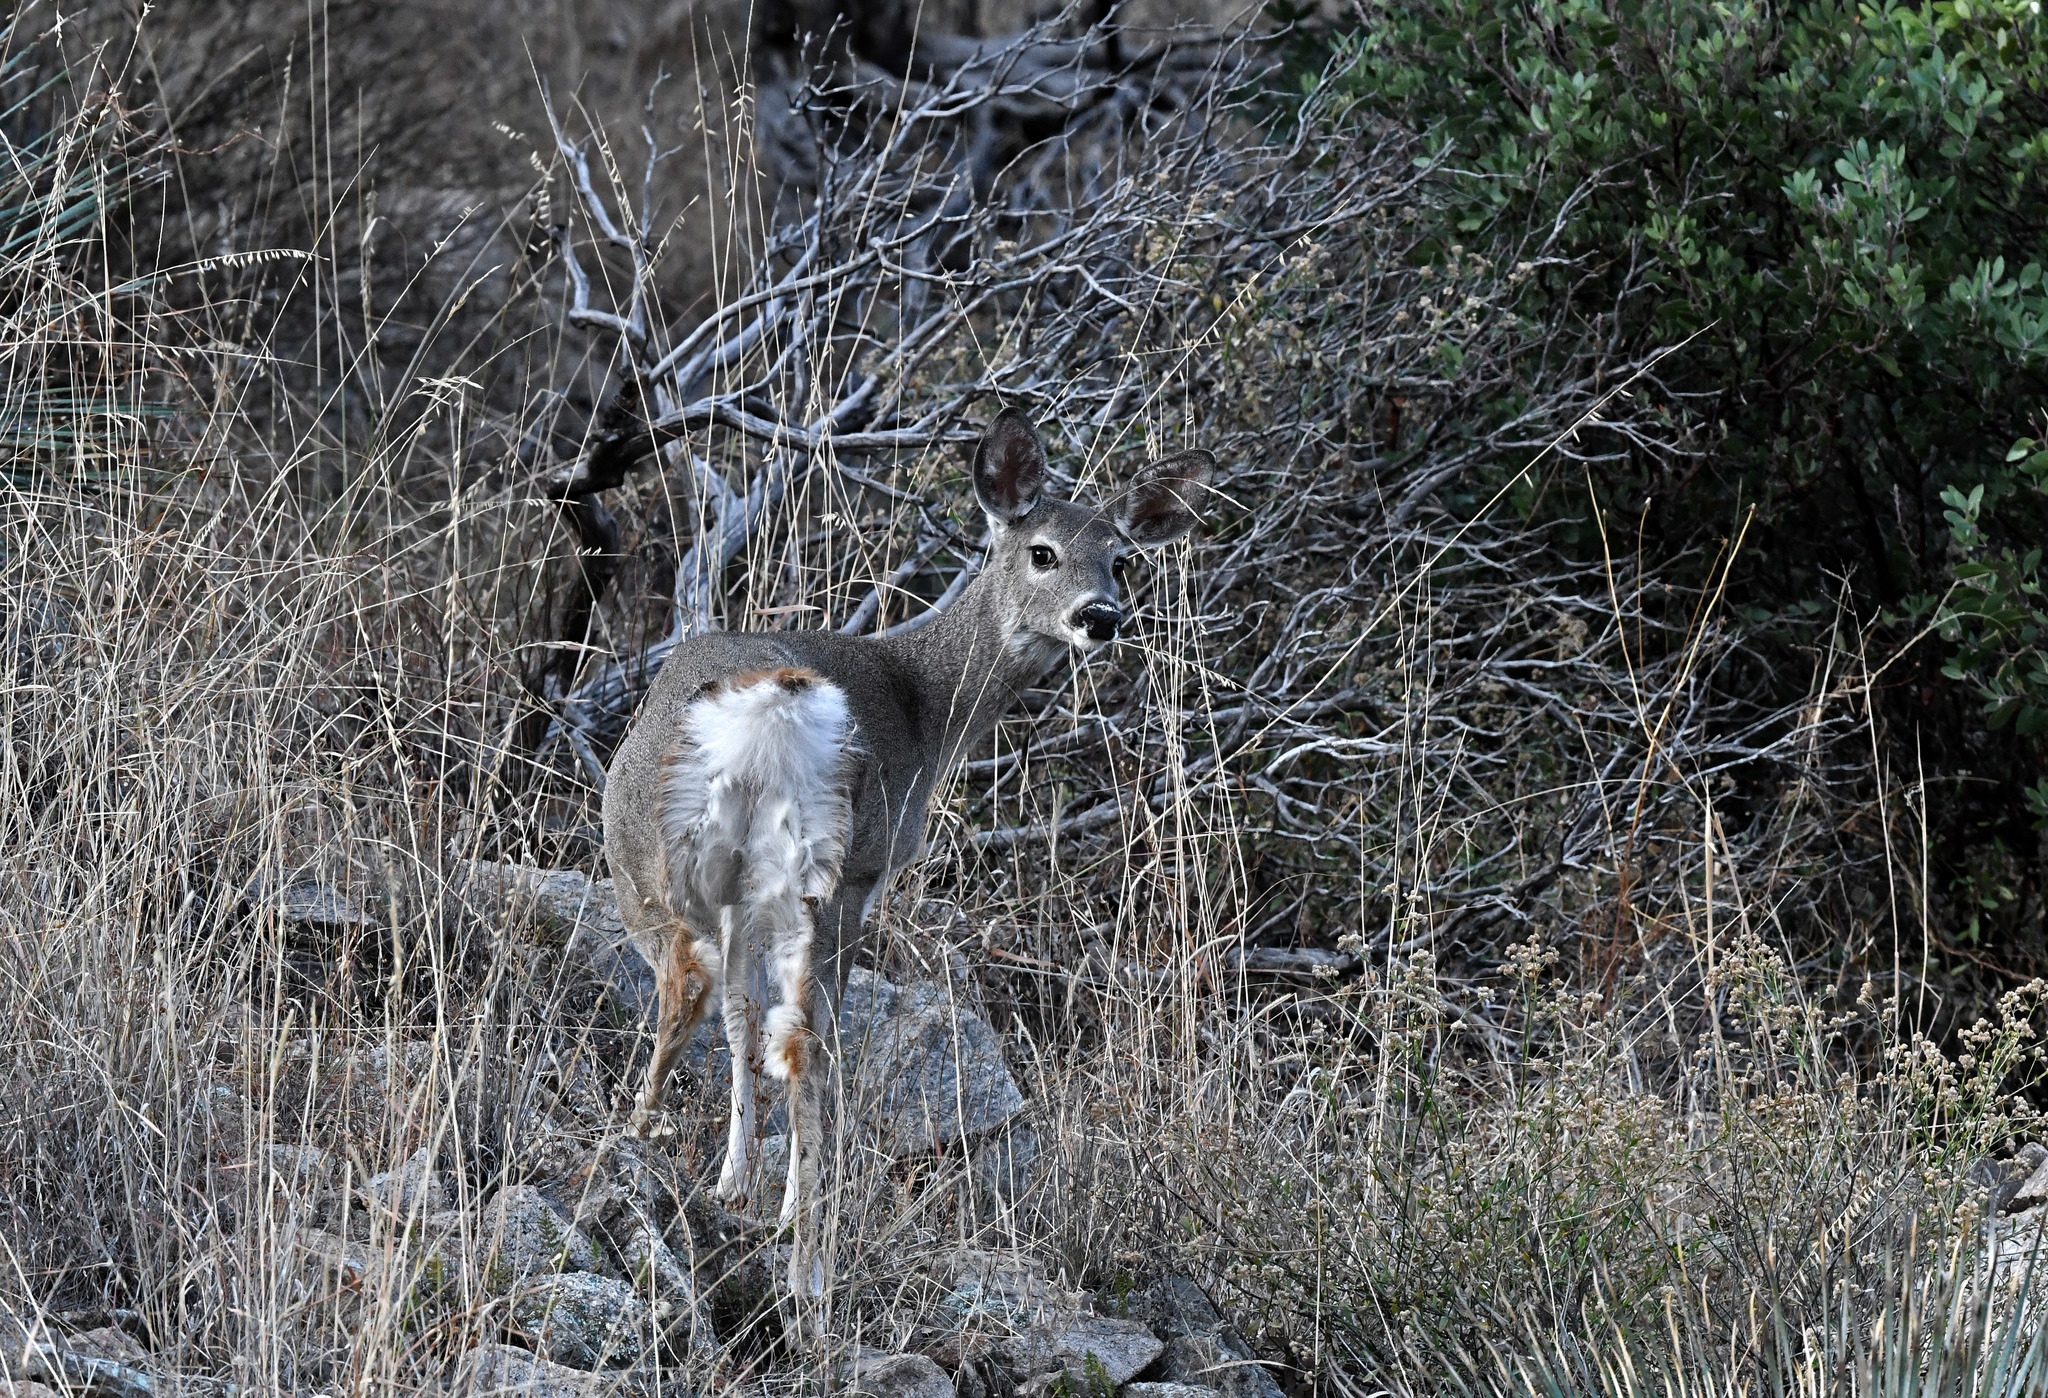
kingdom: Animalia
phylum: Chordata
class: Mammalia
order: Artiodactyla
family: Cervidae
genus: Odocoileus
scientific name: Odocoileus virginianus
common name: White-tailed deer
